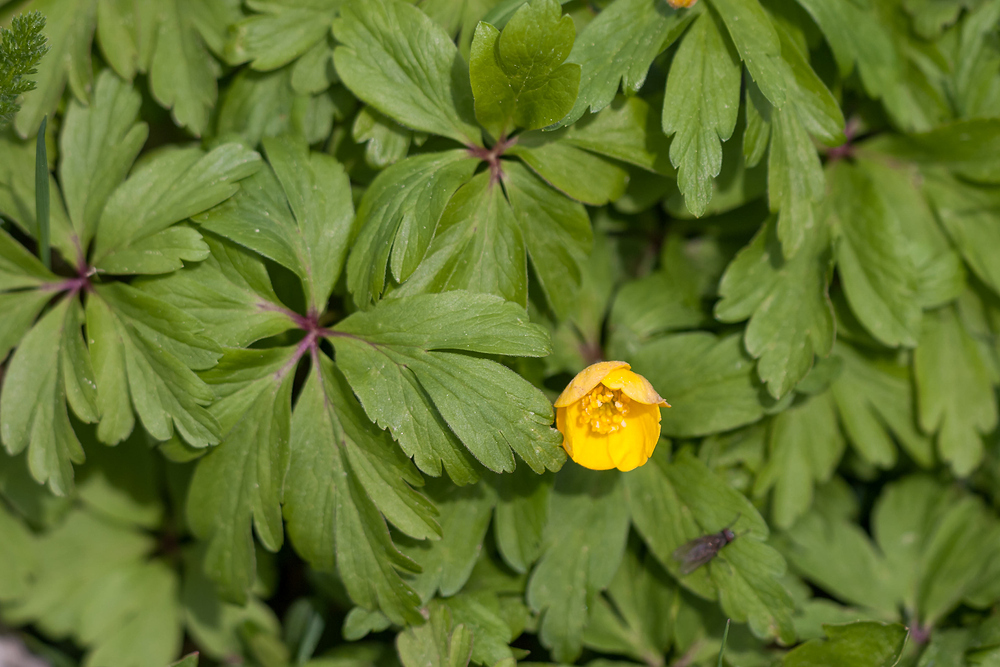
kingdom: Plantae
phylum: Tracheophyta
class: Magnoliopsida
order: Ranunculales
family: Ranunculaceae
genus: Anemone
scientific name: Anemone ranunculoides
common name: Yellow anemone
